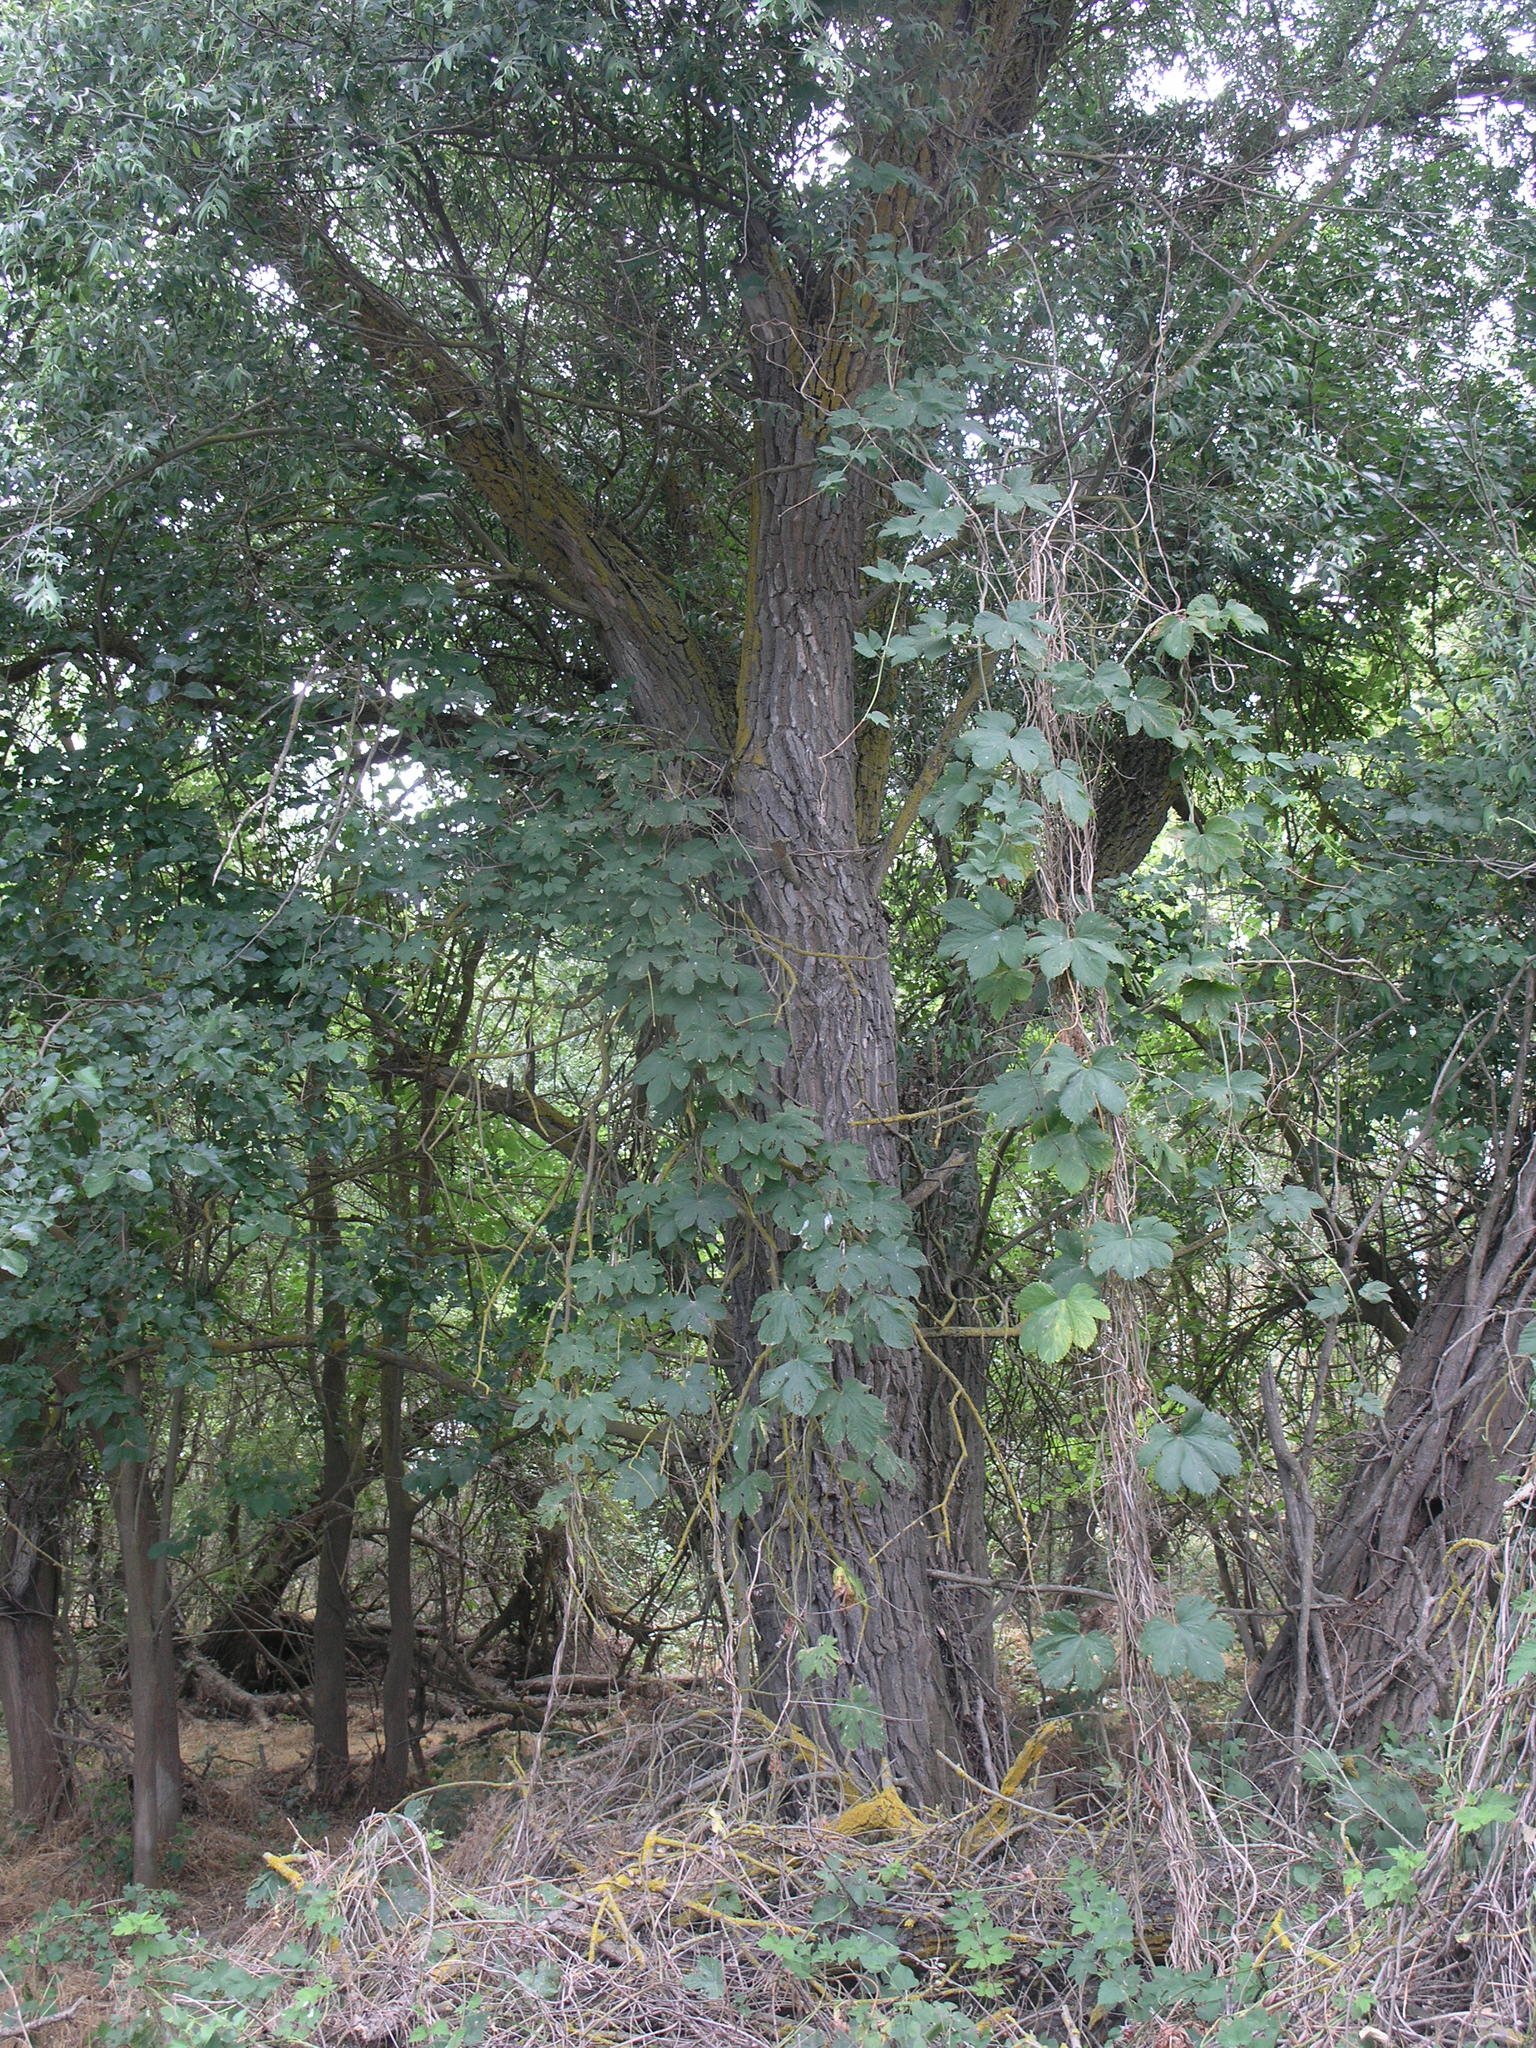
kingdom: Plantae
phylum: Tracheophyta
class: Magnoliopsida
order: Rosales
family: Cannabaceae
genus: Humulus
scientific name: Humulus lupulus
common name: Hop
